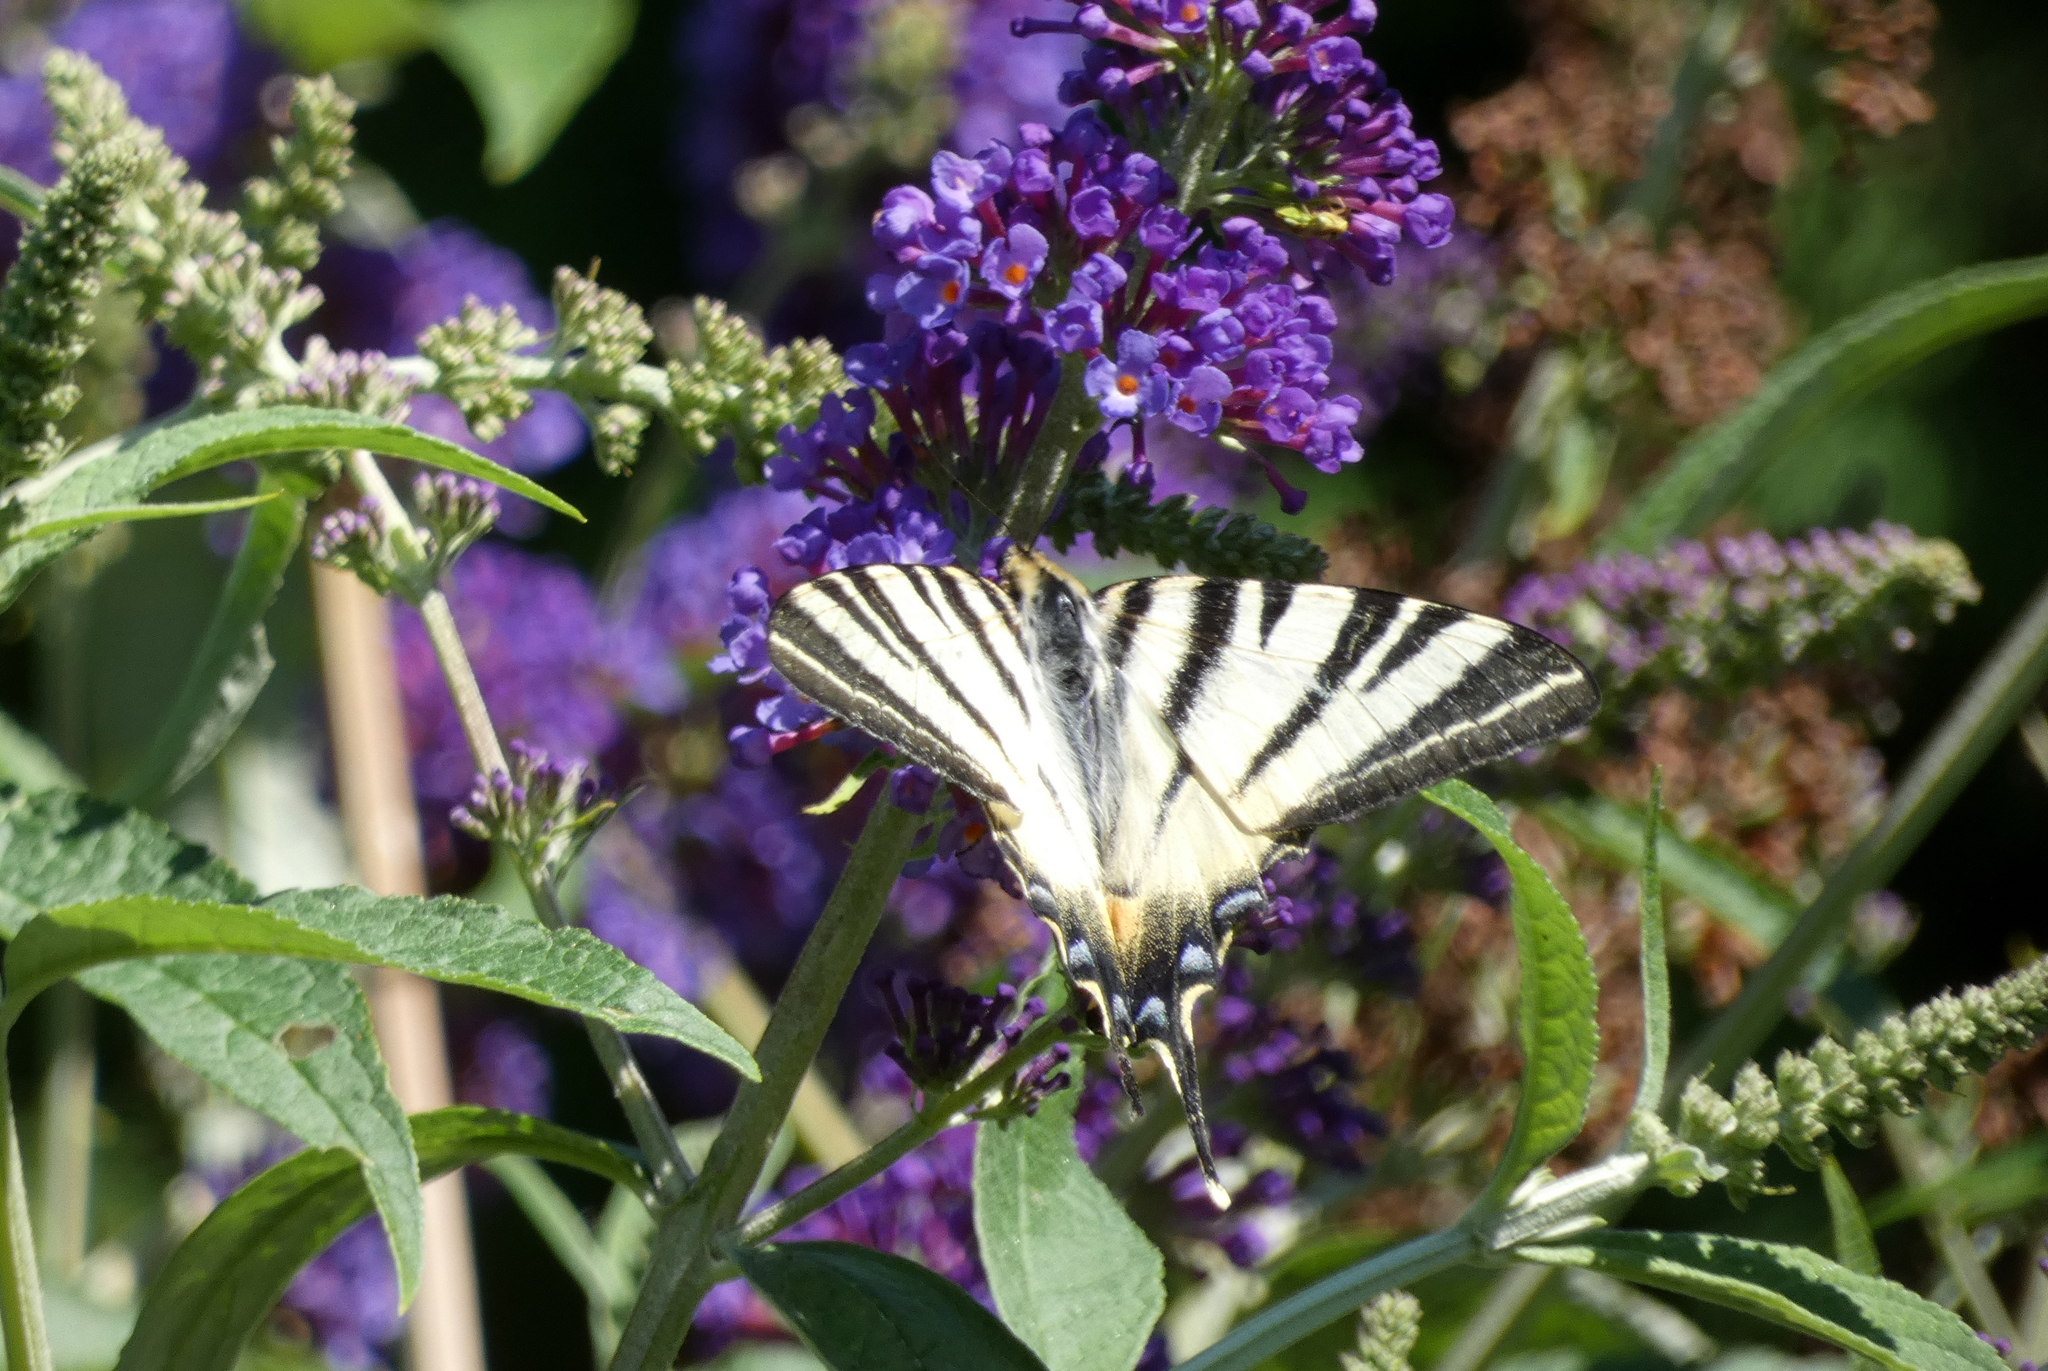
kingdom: Animalia
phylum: Arthropoda
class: Insecta
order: Lepidoptera
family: Papilionidae
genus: Iphiclides
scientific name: Iphiclides podalirius
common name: Scarce swallowtail
